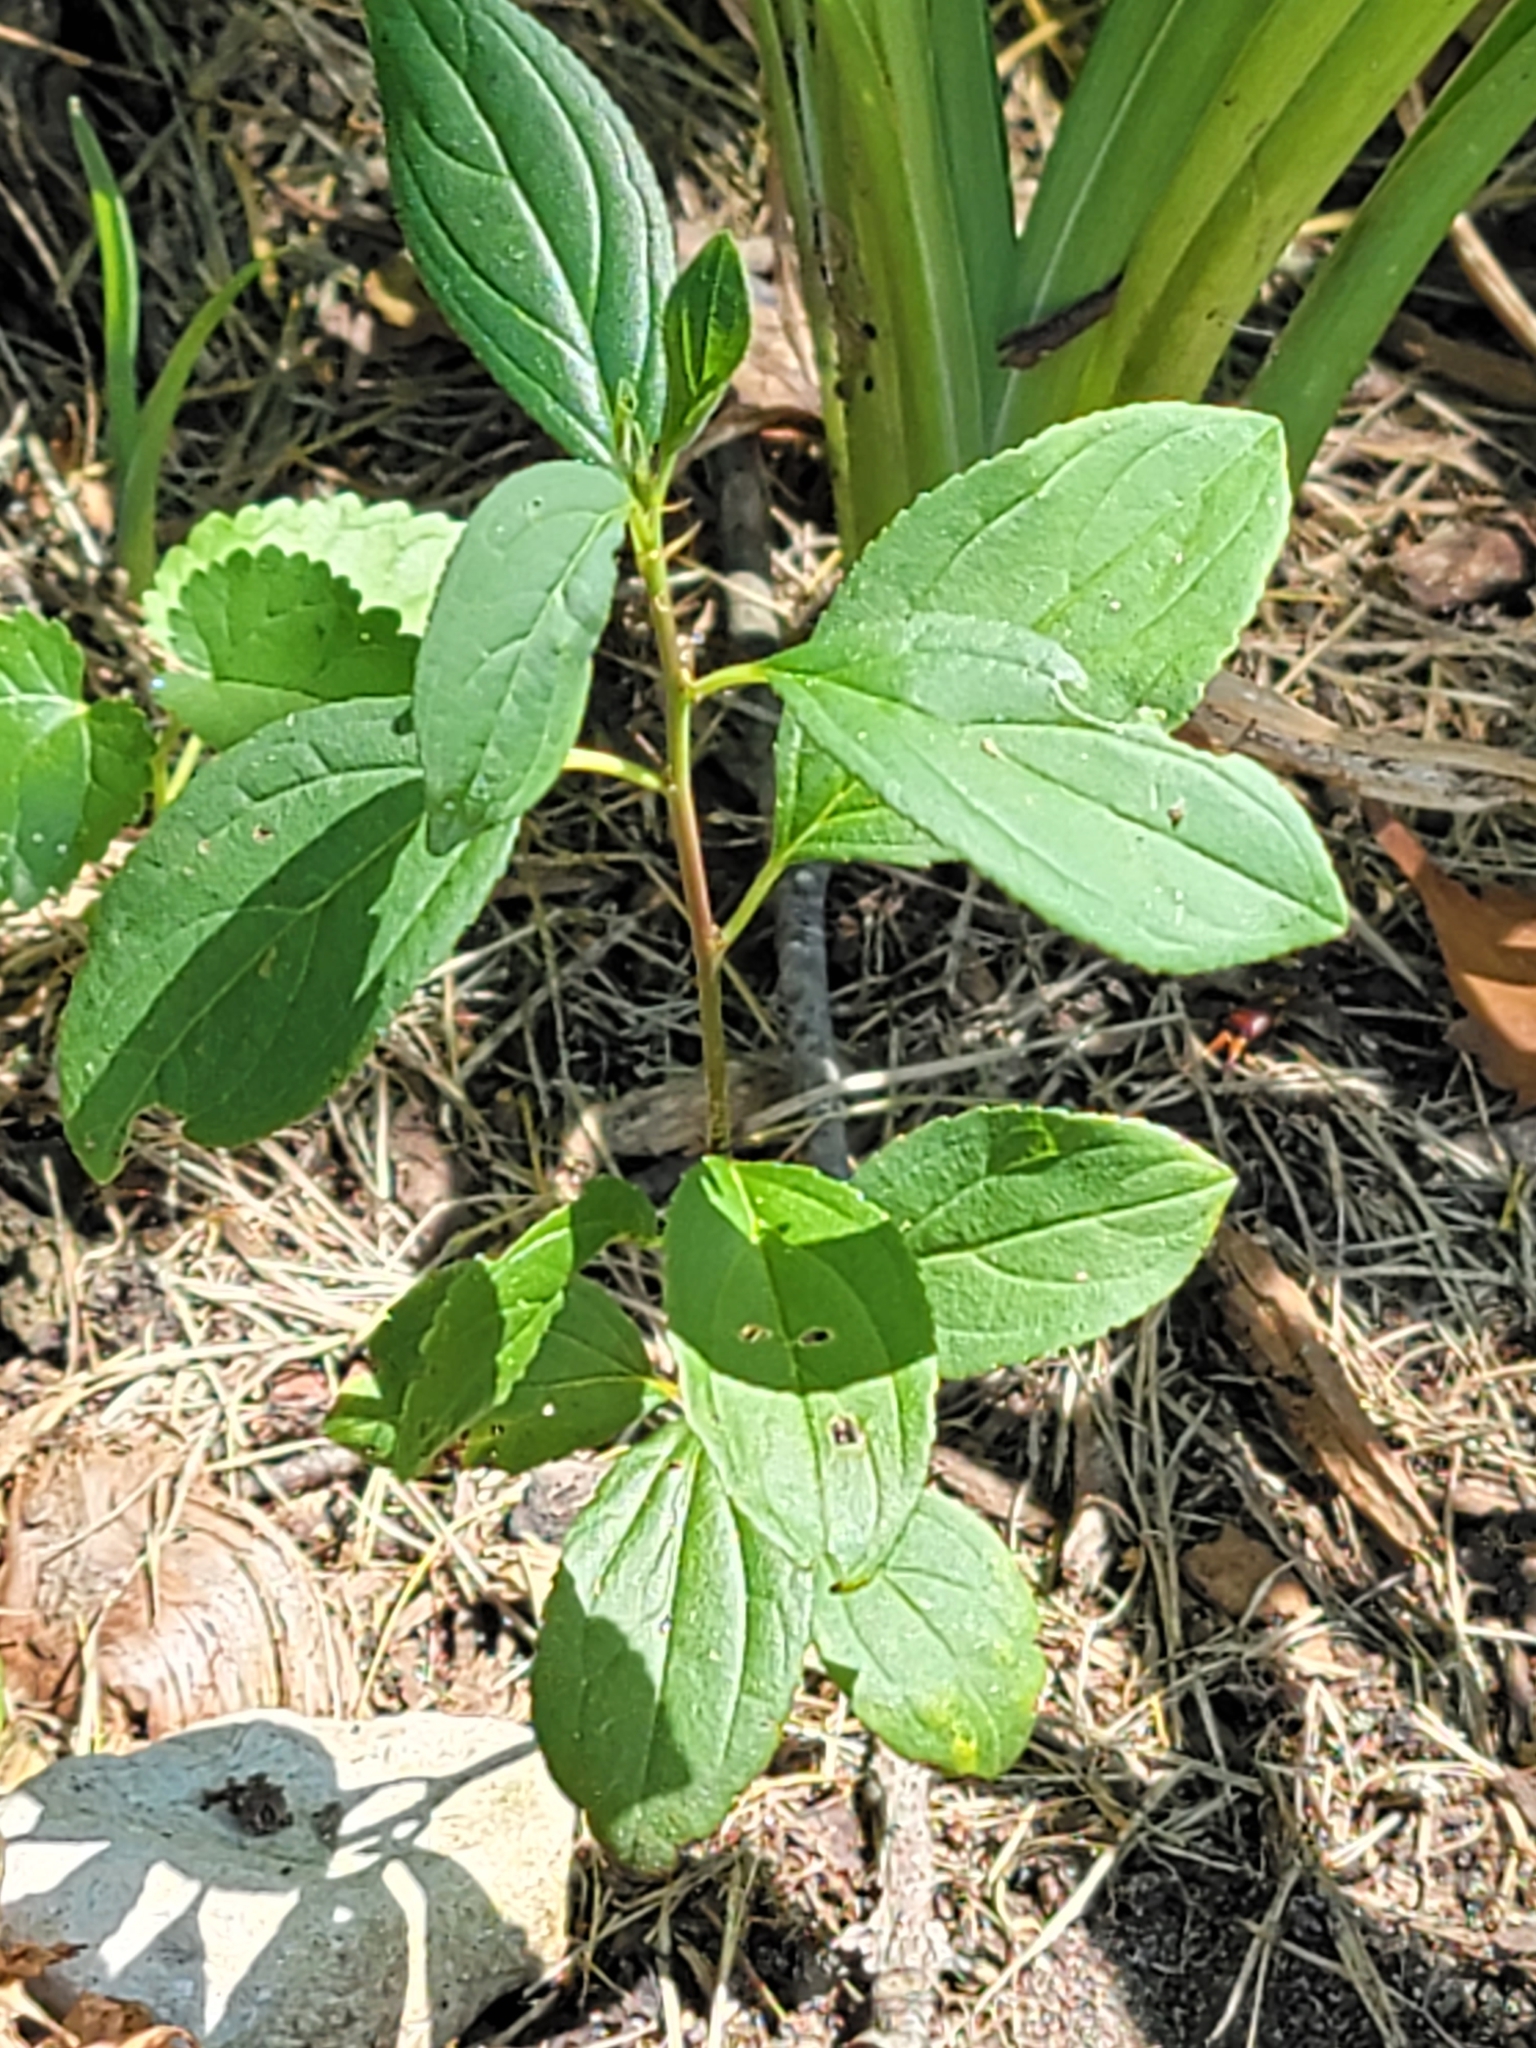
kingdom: Plantae
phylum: Tracheophyta
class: Magnoliopsida
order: Rosales
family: Rhamnaceae
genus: Rhamnus
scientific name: Rhamnus cathartica
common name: Common buckthorn
